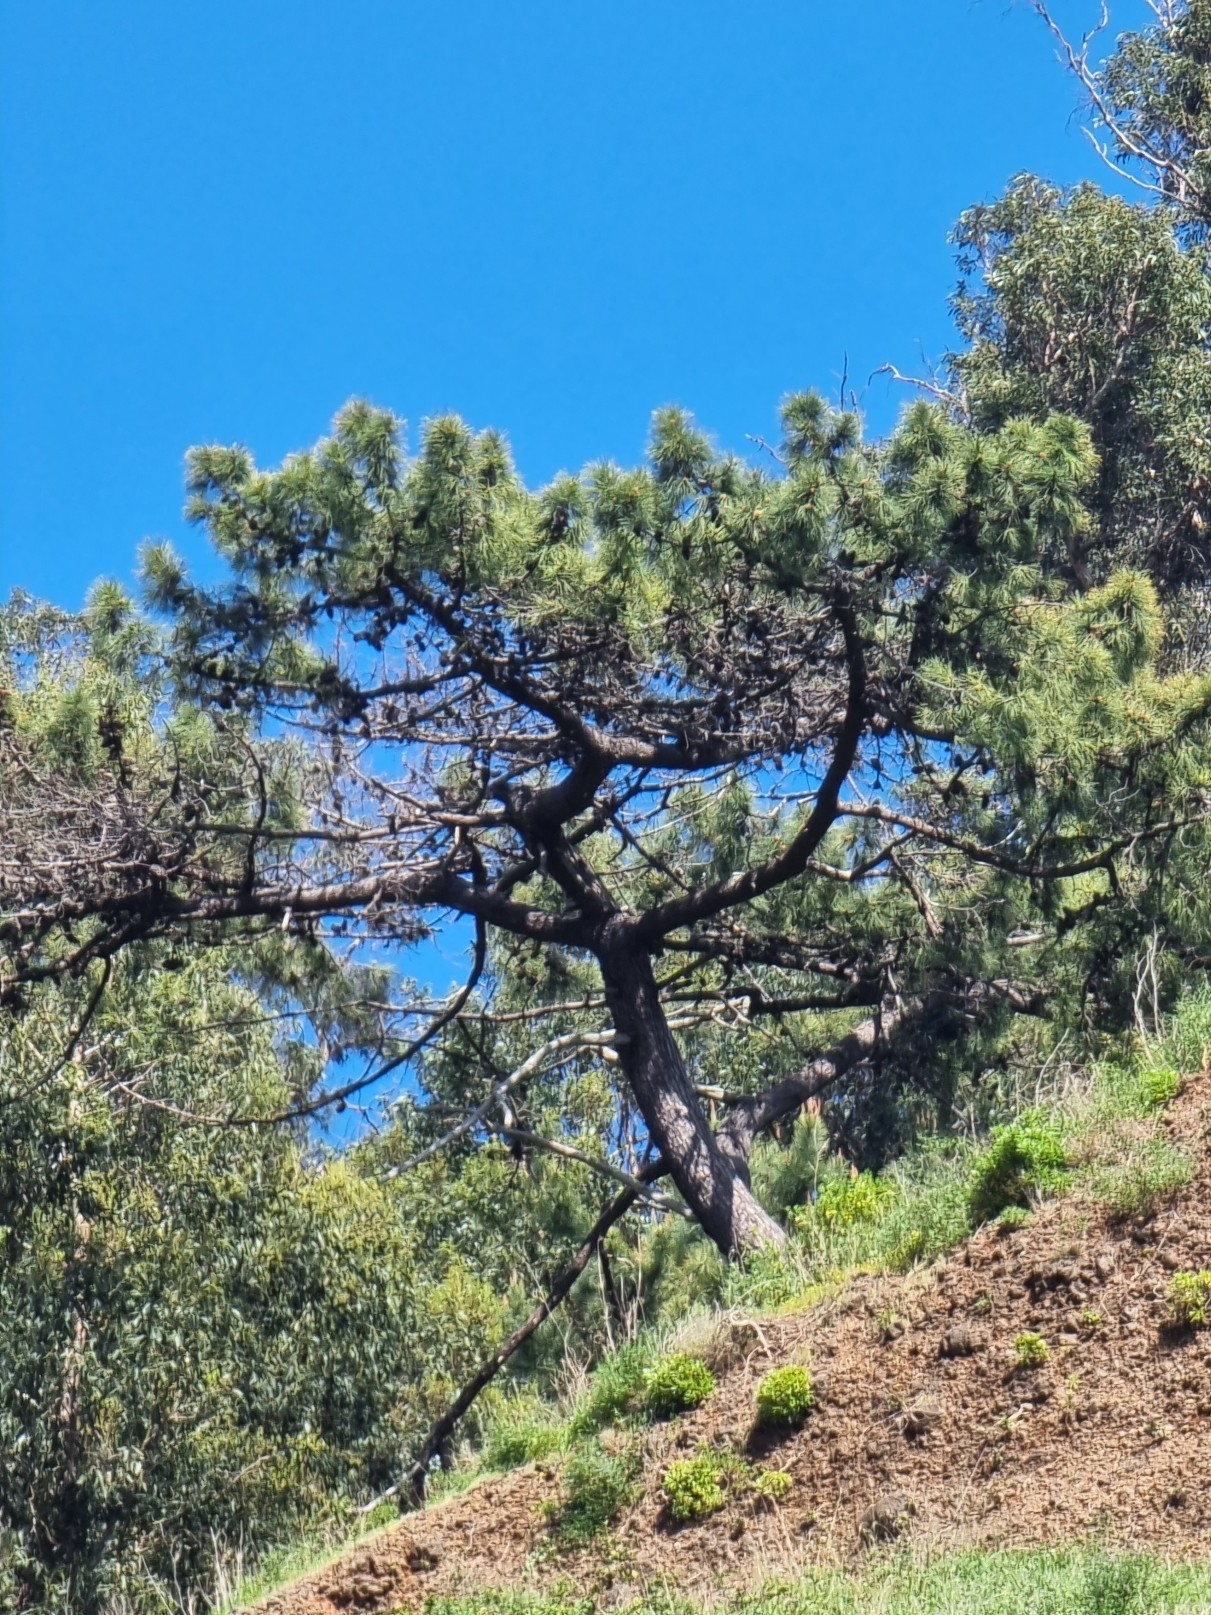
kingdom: Plantae
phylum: Tracheophyta
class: Pinopsida
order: Pinales
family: Pinaceae
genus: Pinus
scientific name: Pinus pinaster
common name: Maritime pine
